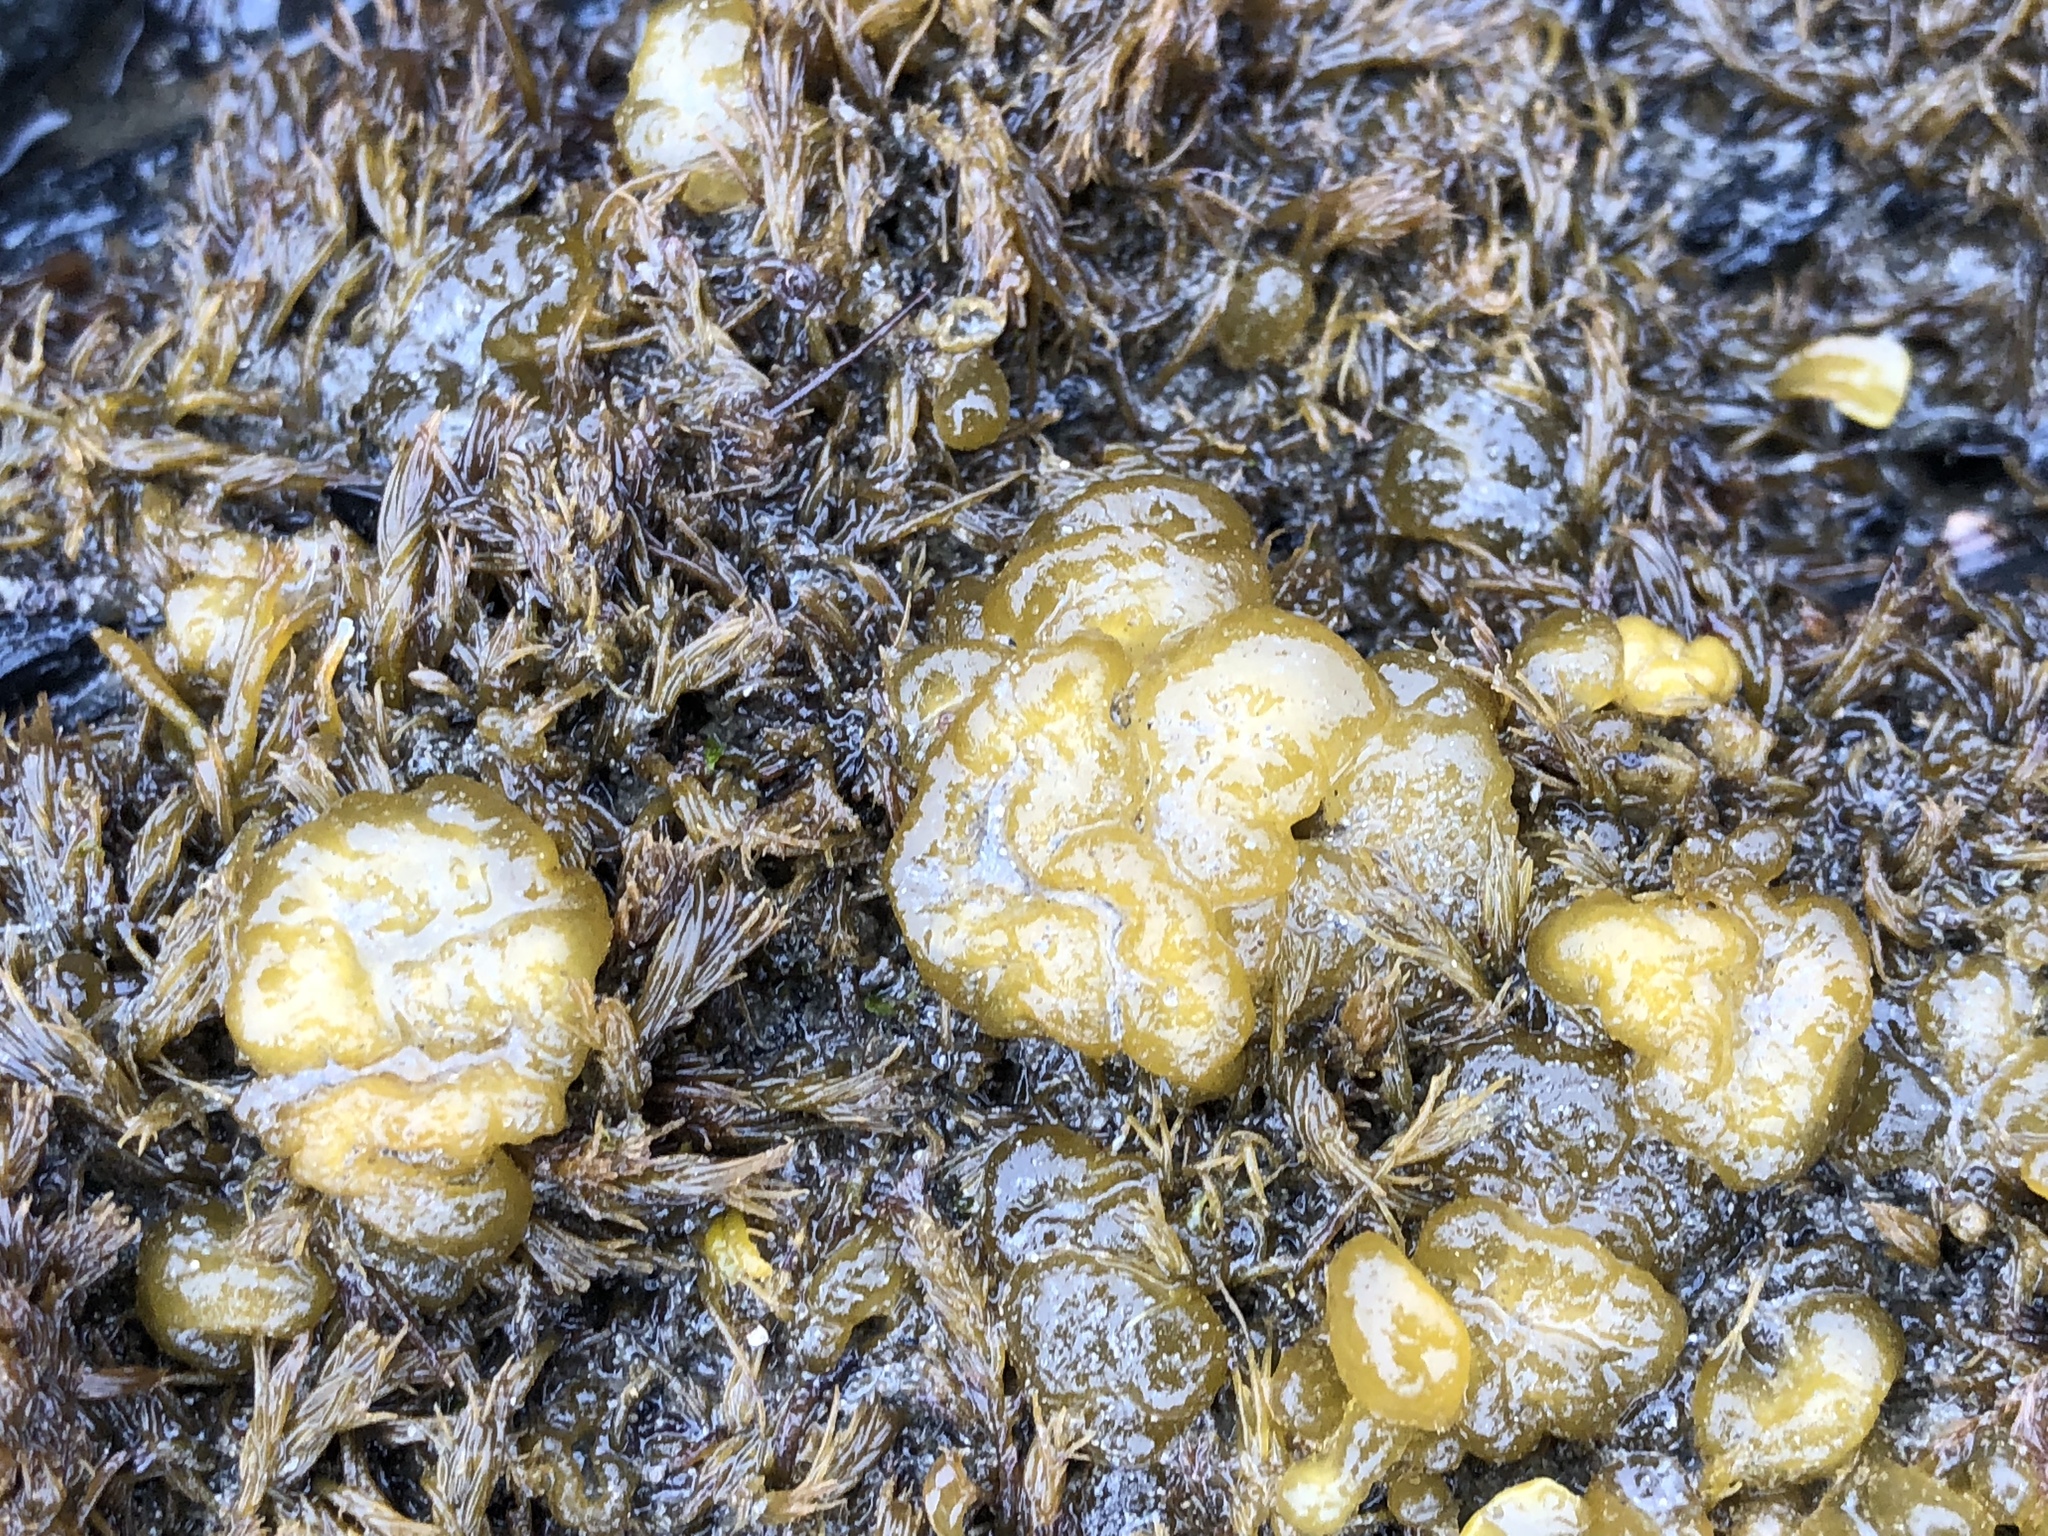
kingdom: Chromista
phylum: Ochrophyta
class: Phaeophyceae
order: Ectocarpales
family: Chordariaceae
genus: Leathesia
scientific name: Leathesia marina
